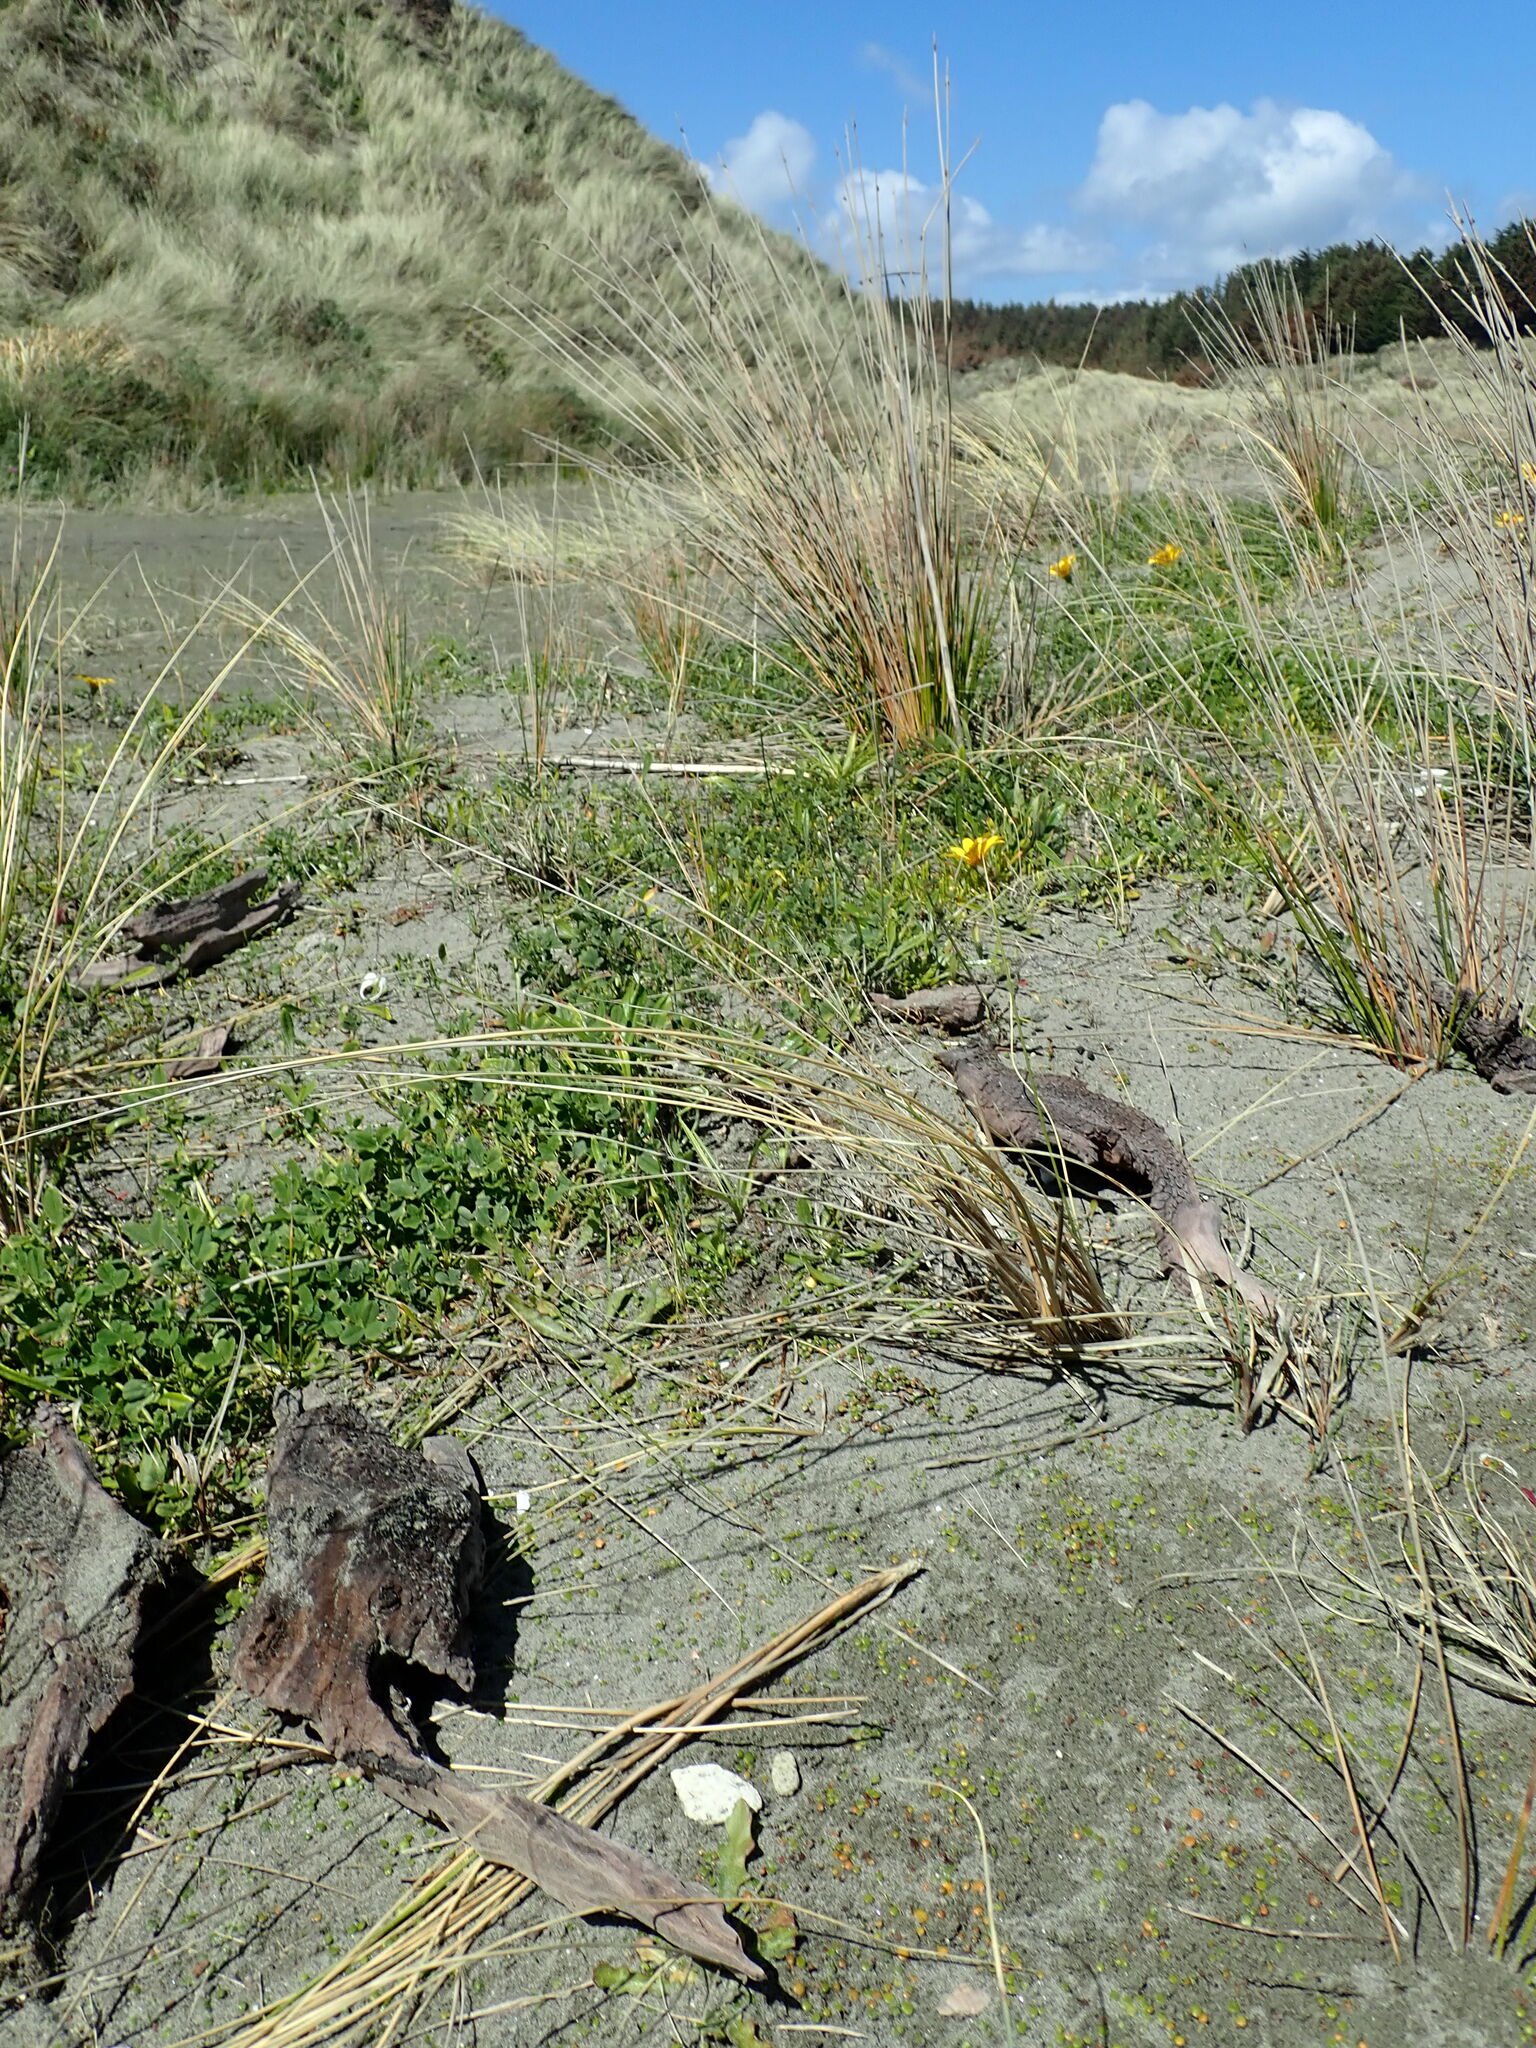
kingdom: Animalia
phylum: Arthropoda
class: Arachnida
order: Araneae
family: Theridiidae
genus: Steatoda
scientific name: Steatoda capensis
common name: Cobweb weaver
